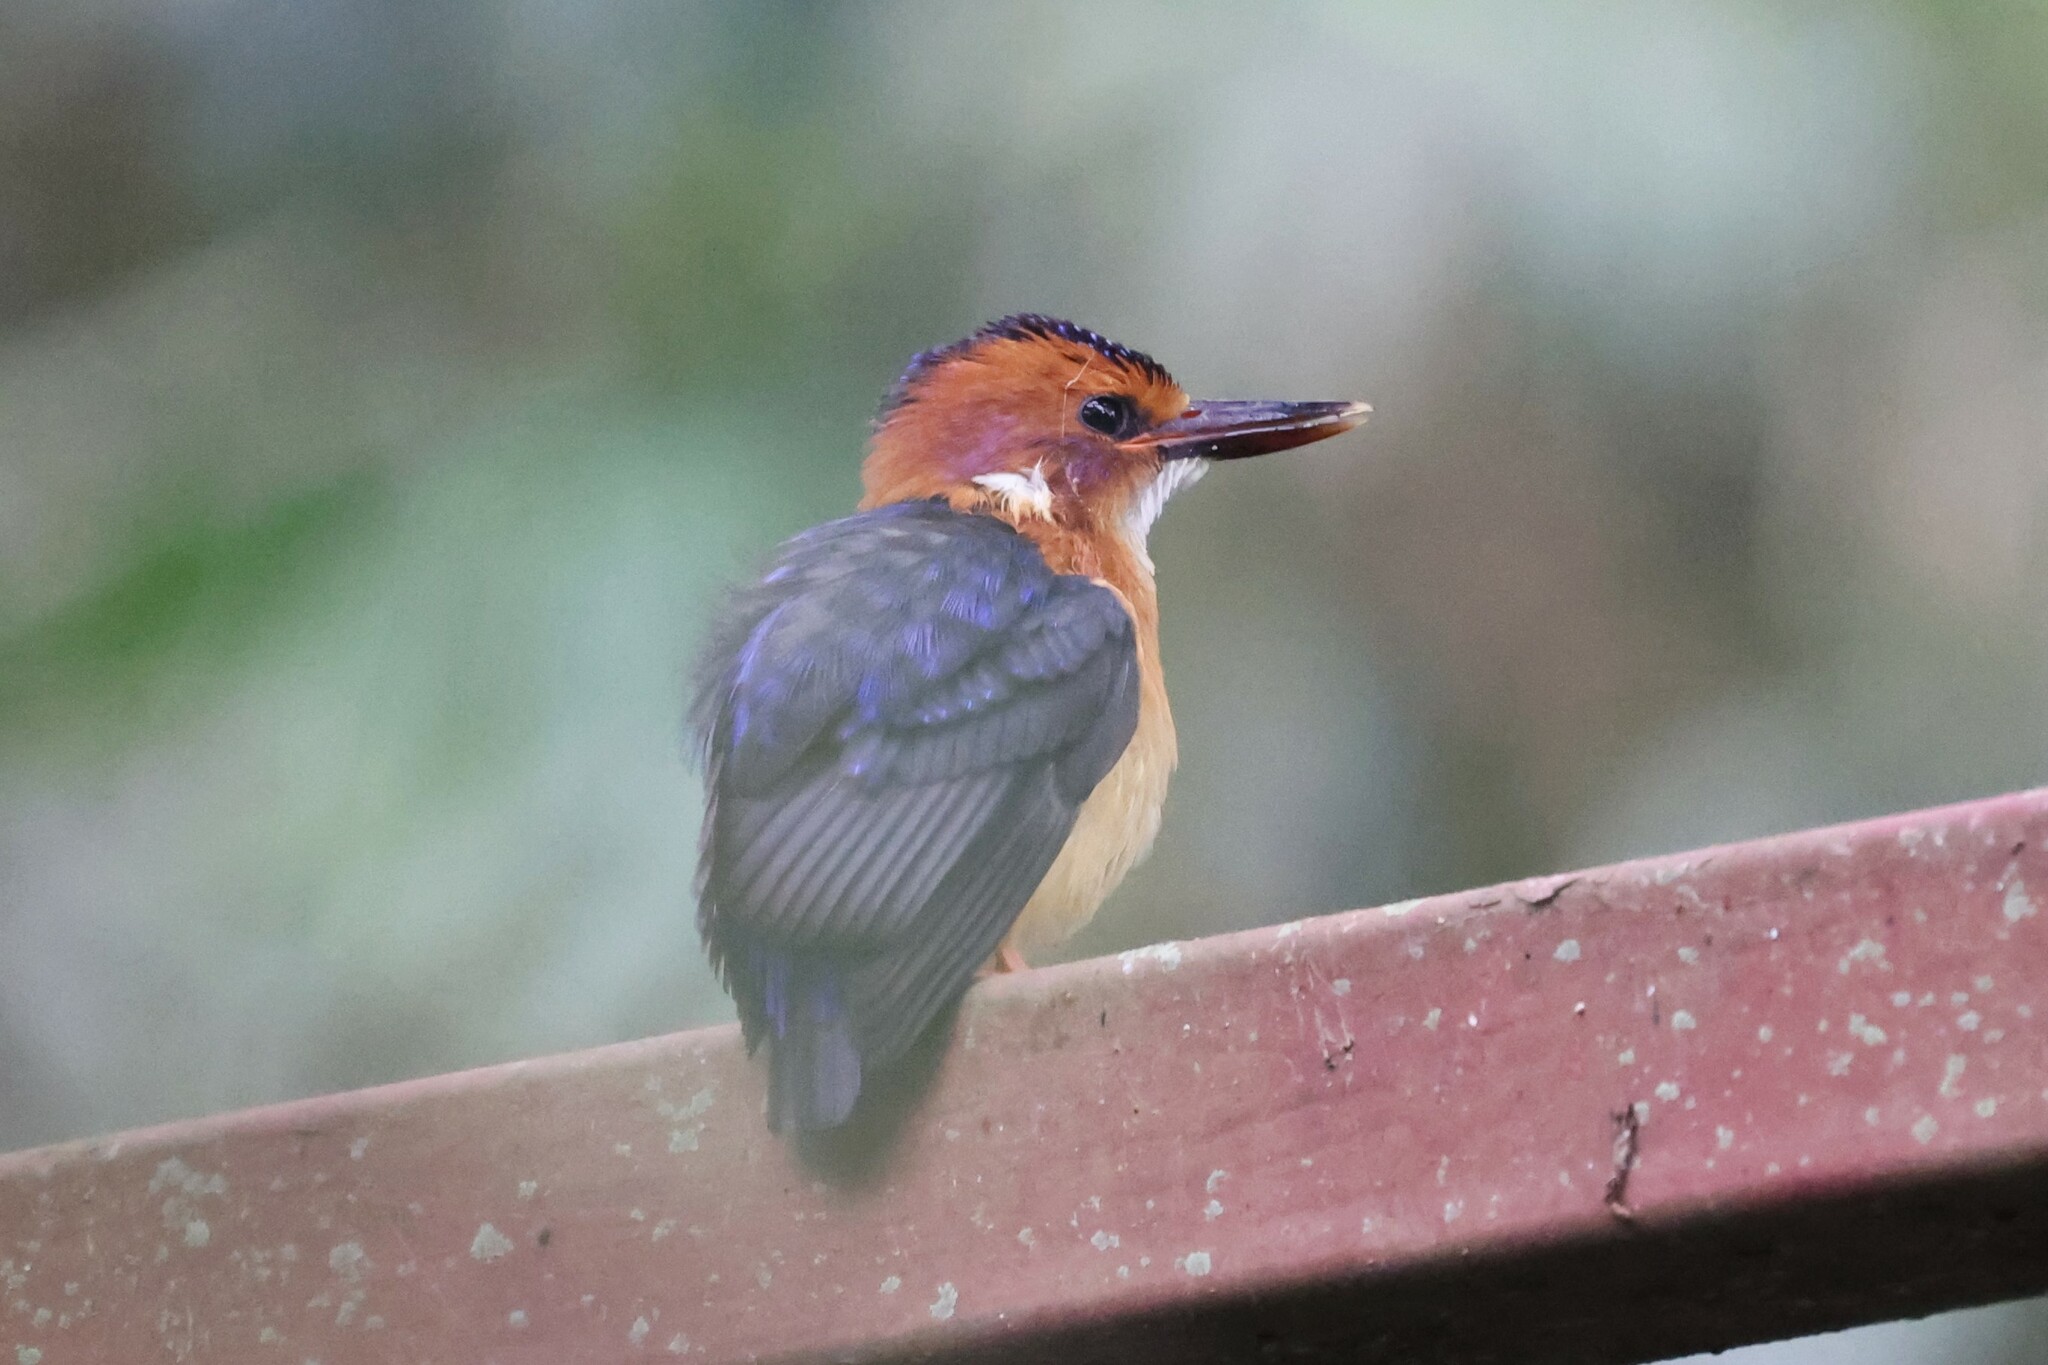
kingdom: Animalia
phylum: Chordata
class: Aves
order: Coraciiformes
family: Alcedinidae
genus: Ispidina
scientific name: Ispidina picta
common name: African pygmy-kingfisher
